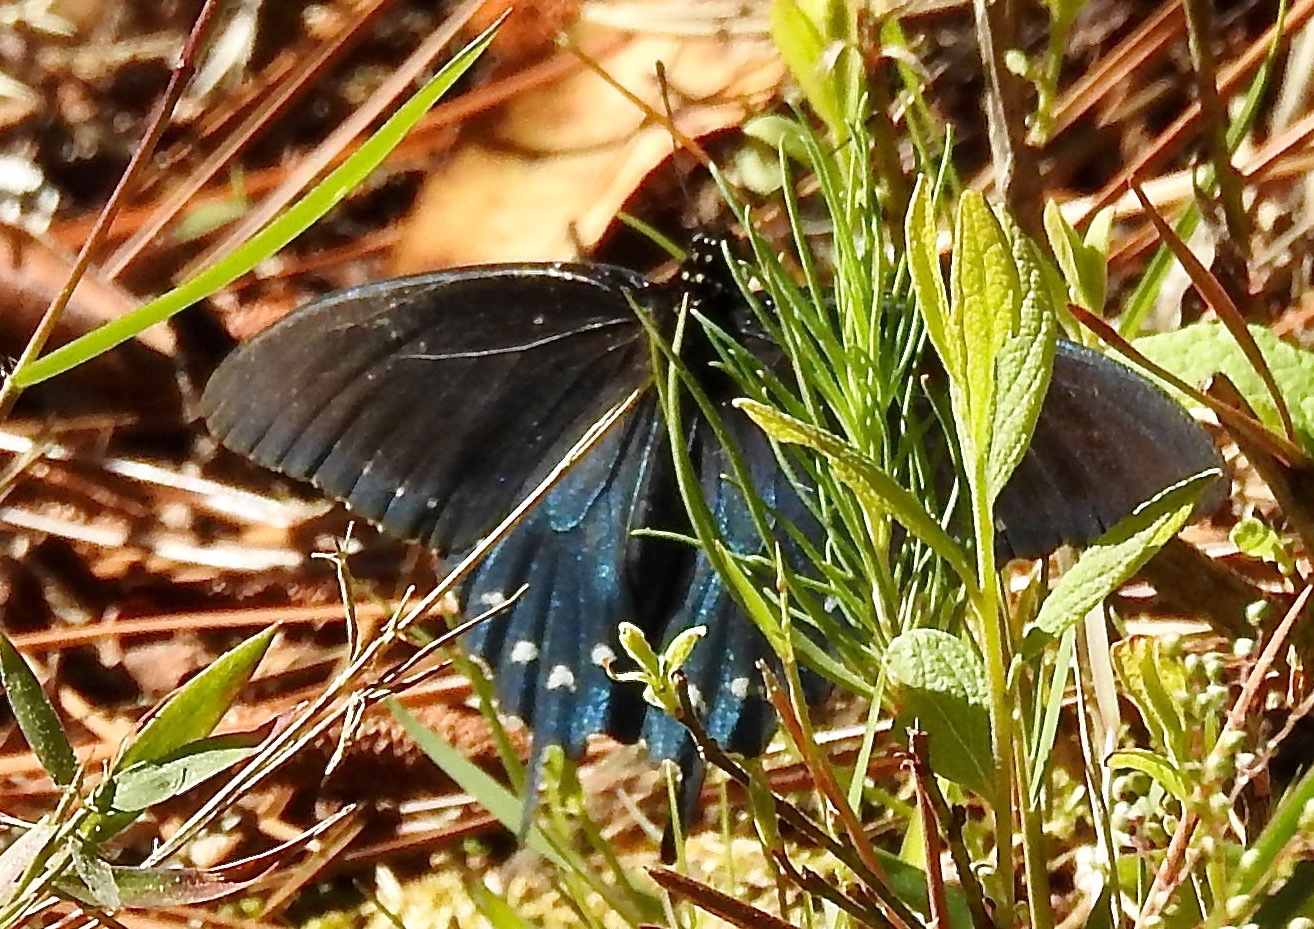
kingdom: Animalia
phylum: Arthropoda
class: Insecta
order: Lepidoptera
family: Papilionidae
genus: Battus
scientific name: Battus philenor
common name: Pipevine swallowtail
